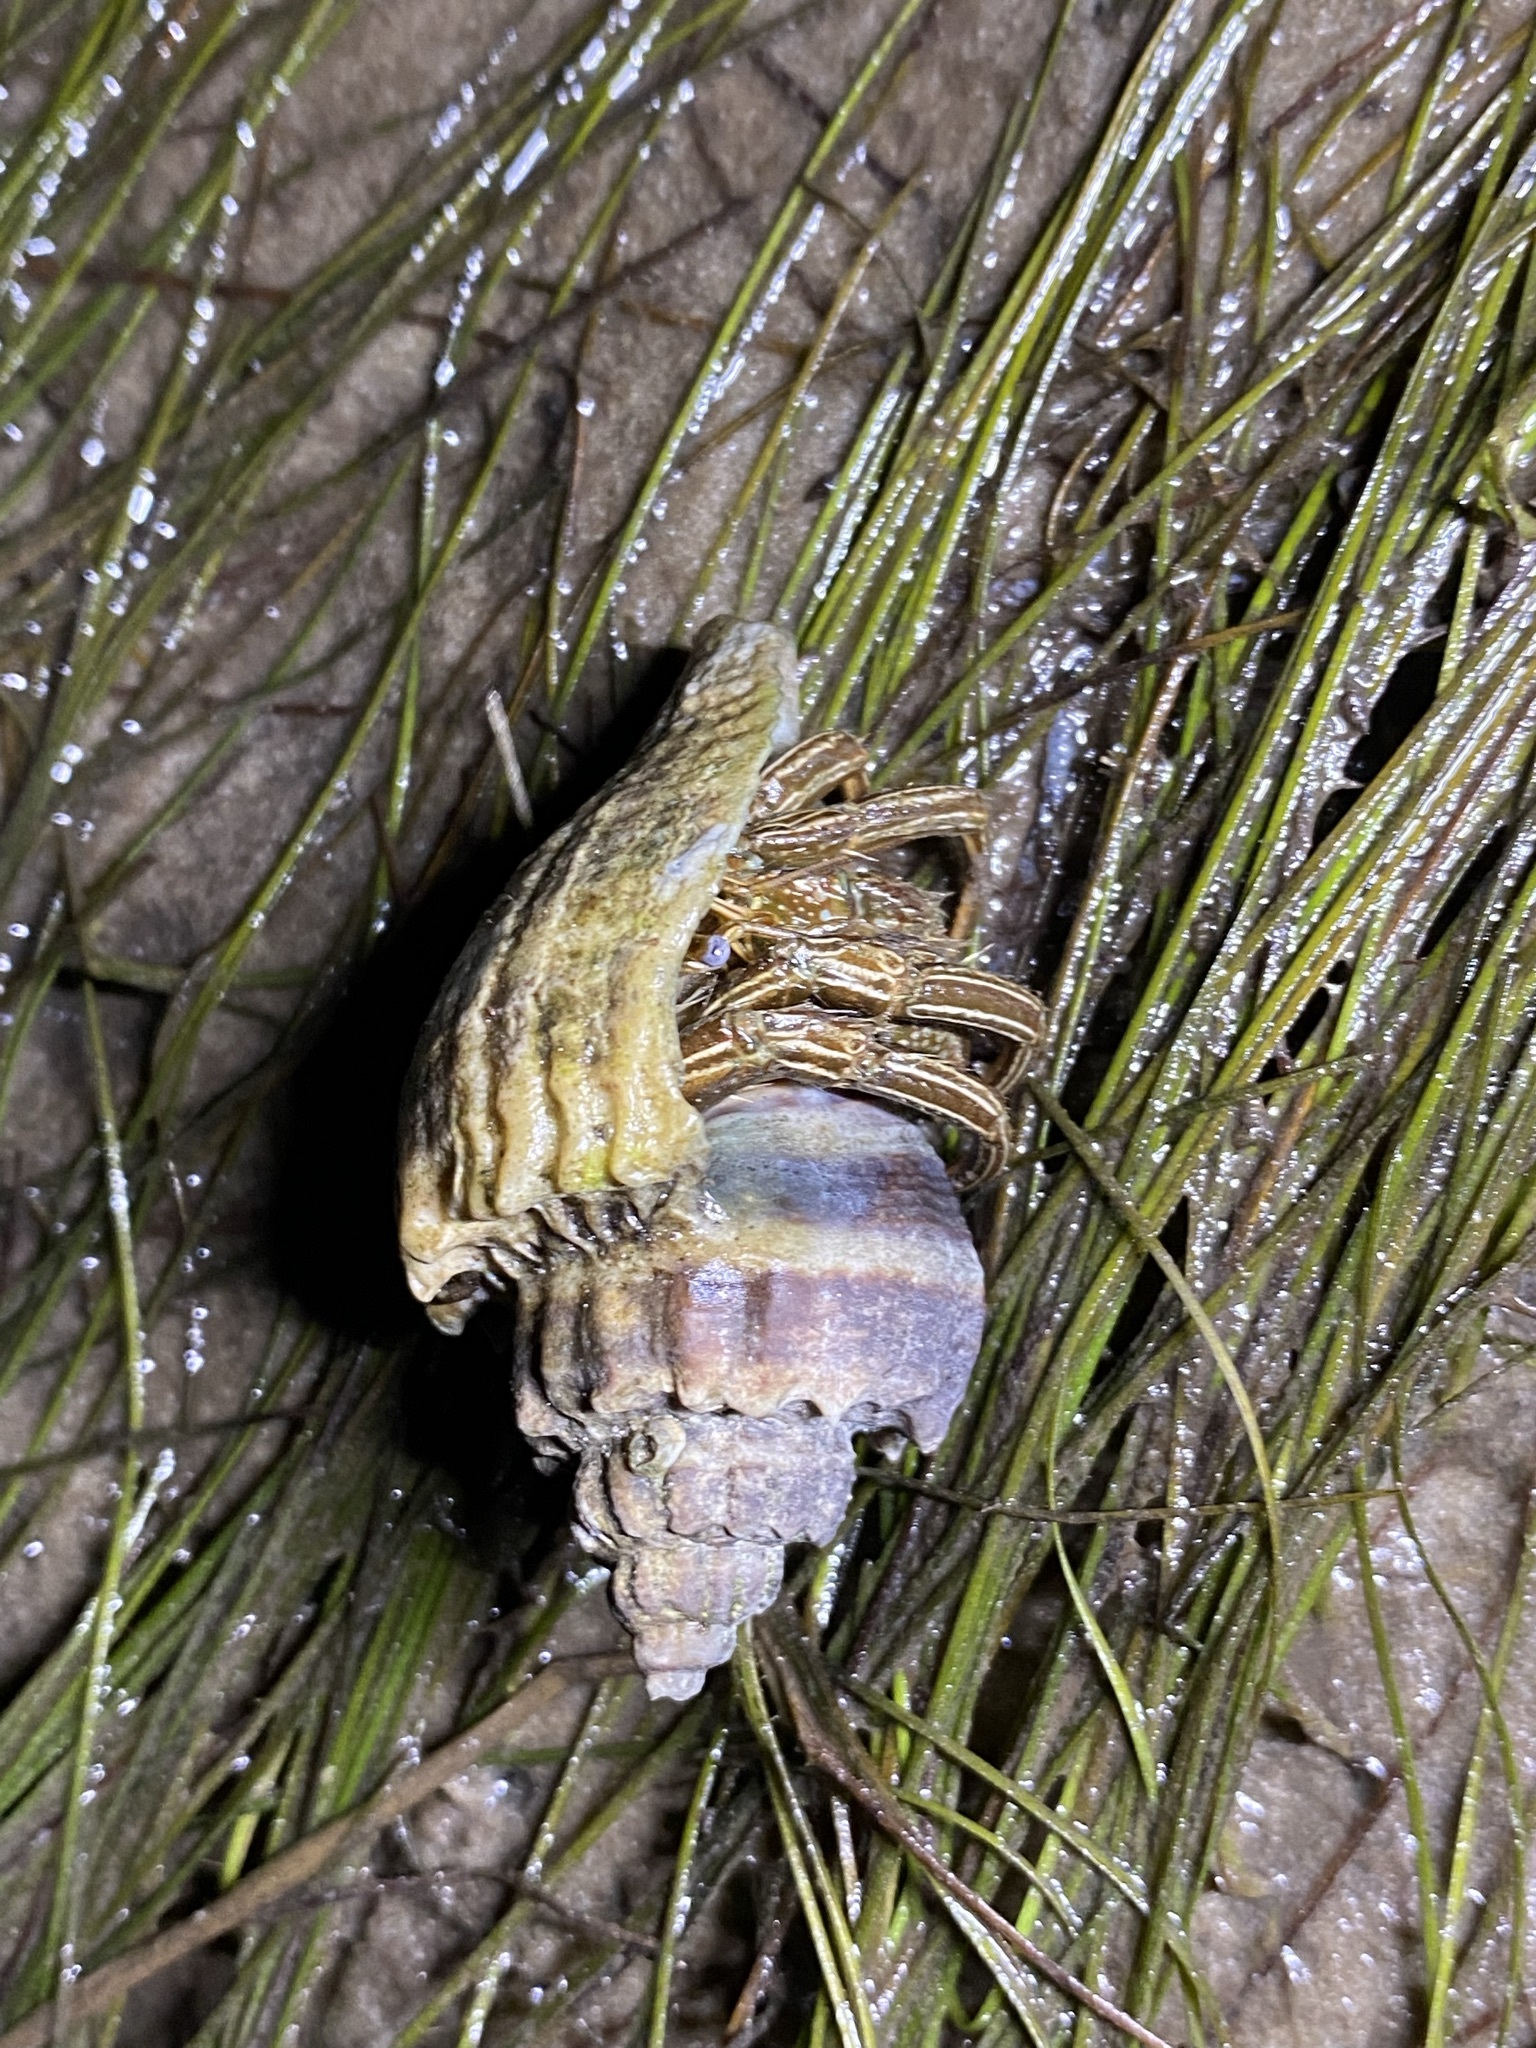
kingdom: Animalia
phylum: Arthropoda
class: Malacostraca
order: Decapoda
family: Diogenidae
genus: Clibanarius
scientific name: Clibanarius vittatus
